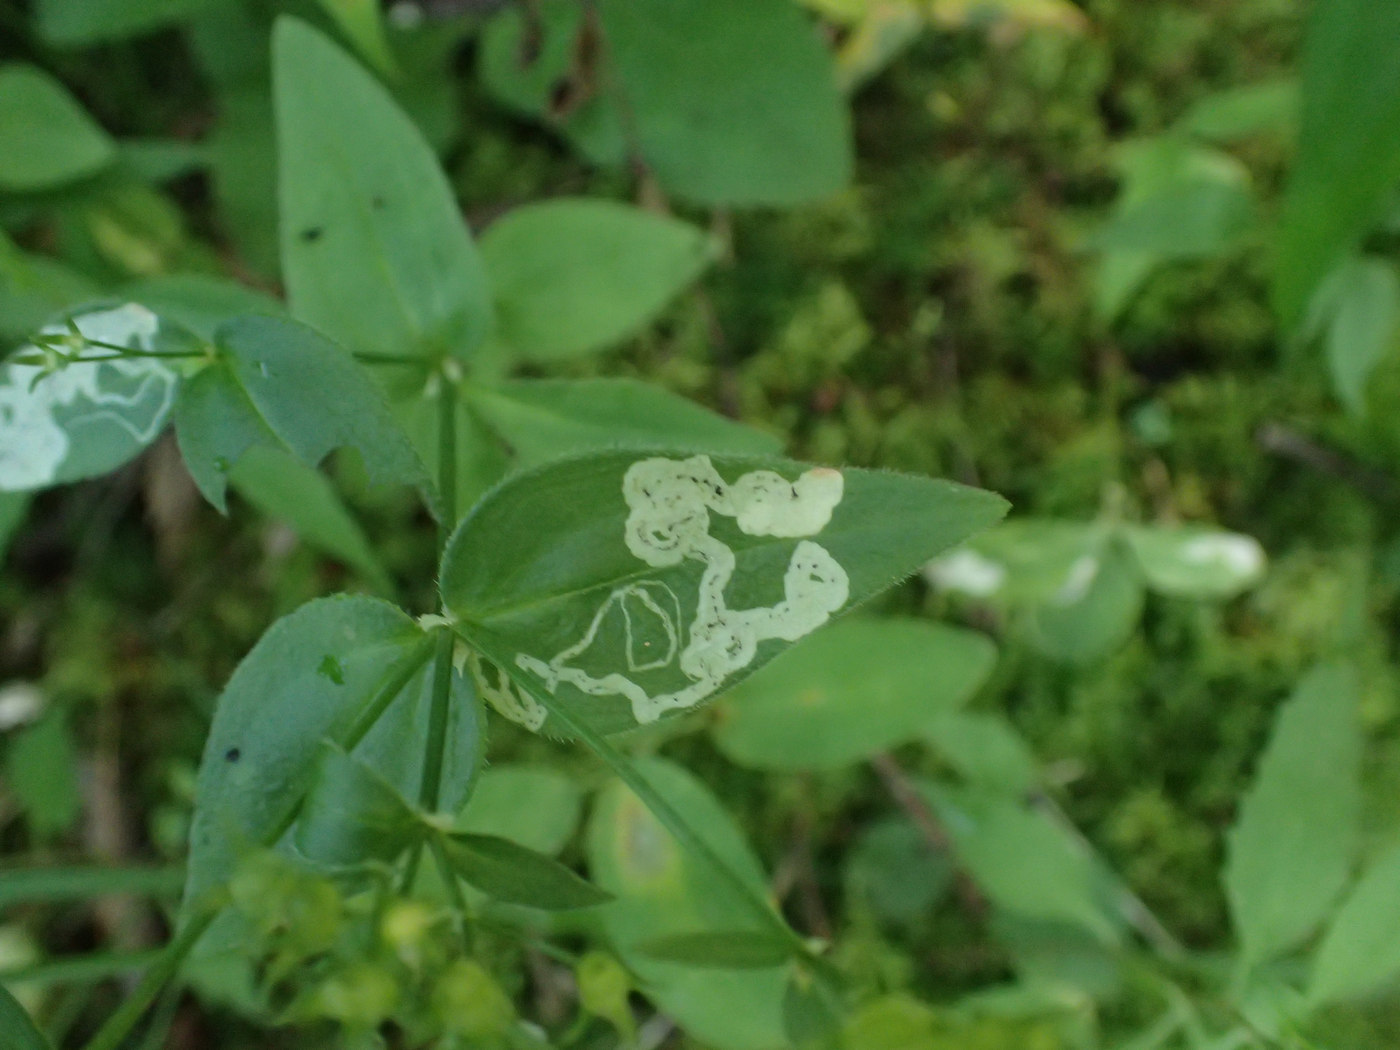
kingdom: Animalia
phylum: Arthropoda
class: Insecta
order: Diptera
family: Agromyzidae
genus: Liriomyza
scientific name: Liriomyza galiivora
